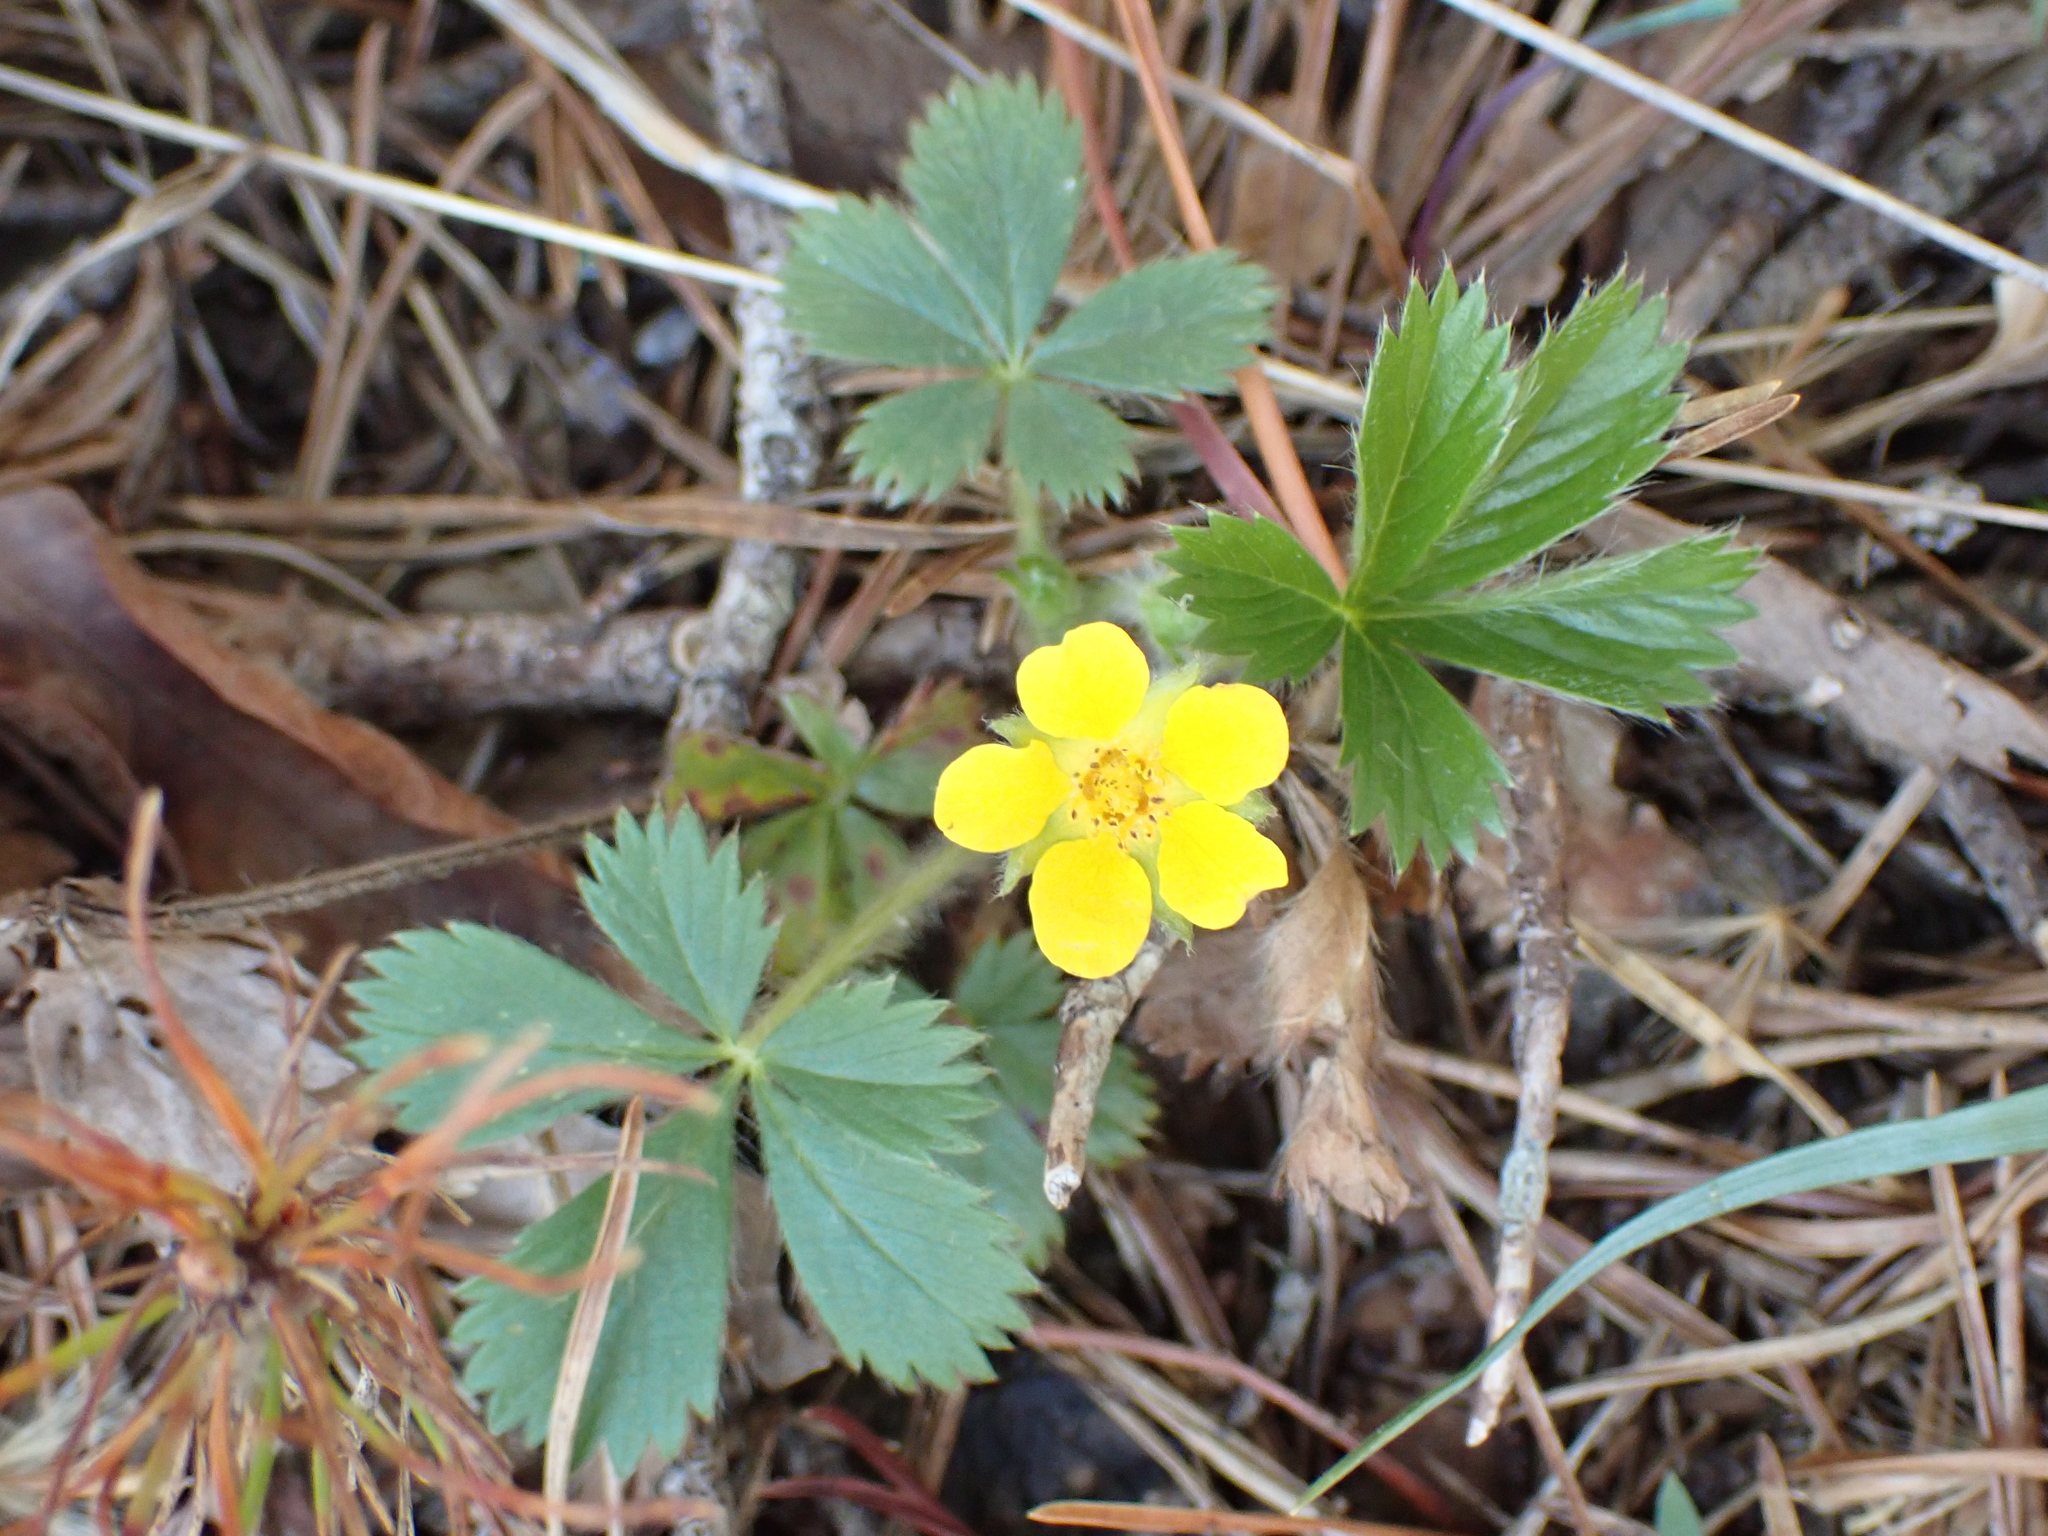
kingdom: Plantae
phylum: Tracheophyta
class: Magnoliopsida
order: Rosales
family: Rosaceae
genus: Potentilla
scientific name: Potentilla canadensis
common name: Canada cinquefoil
